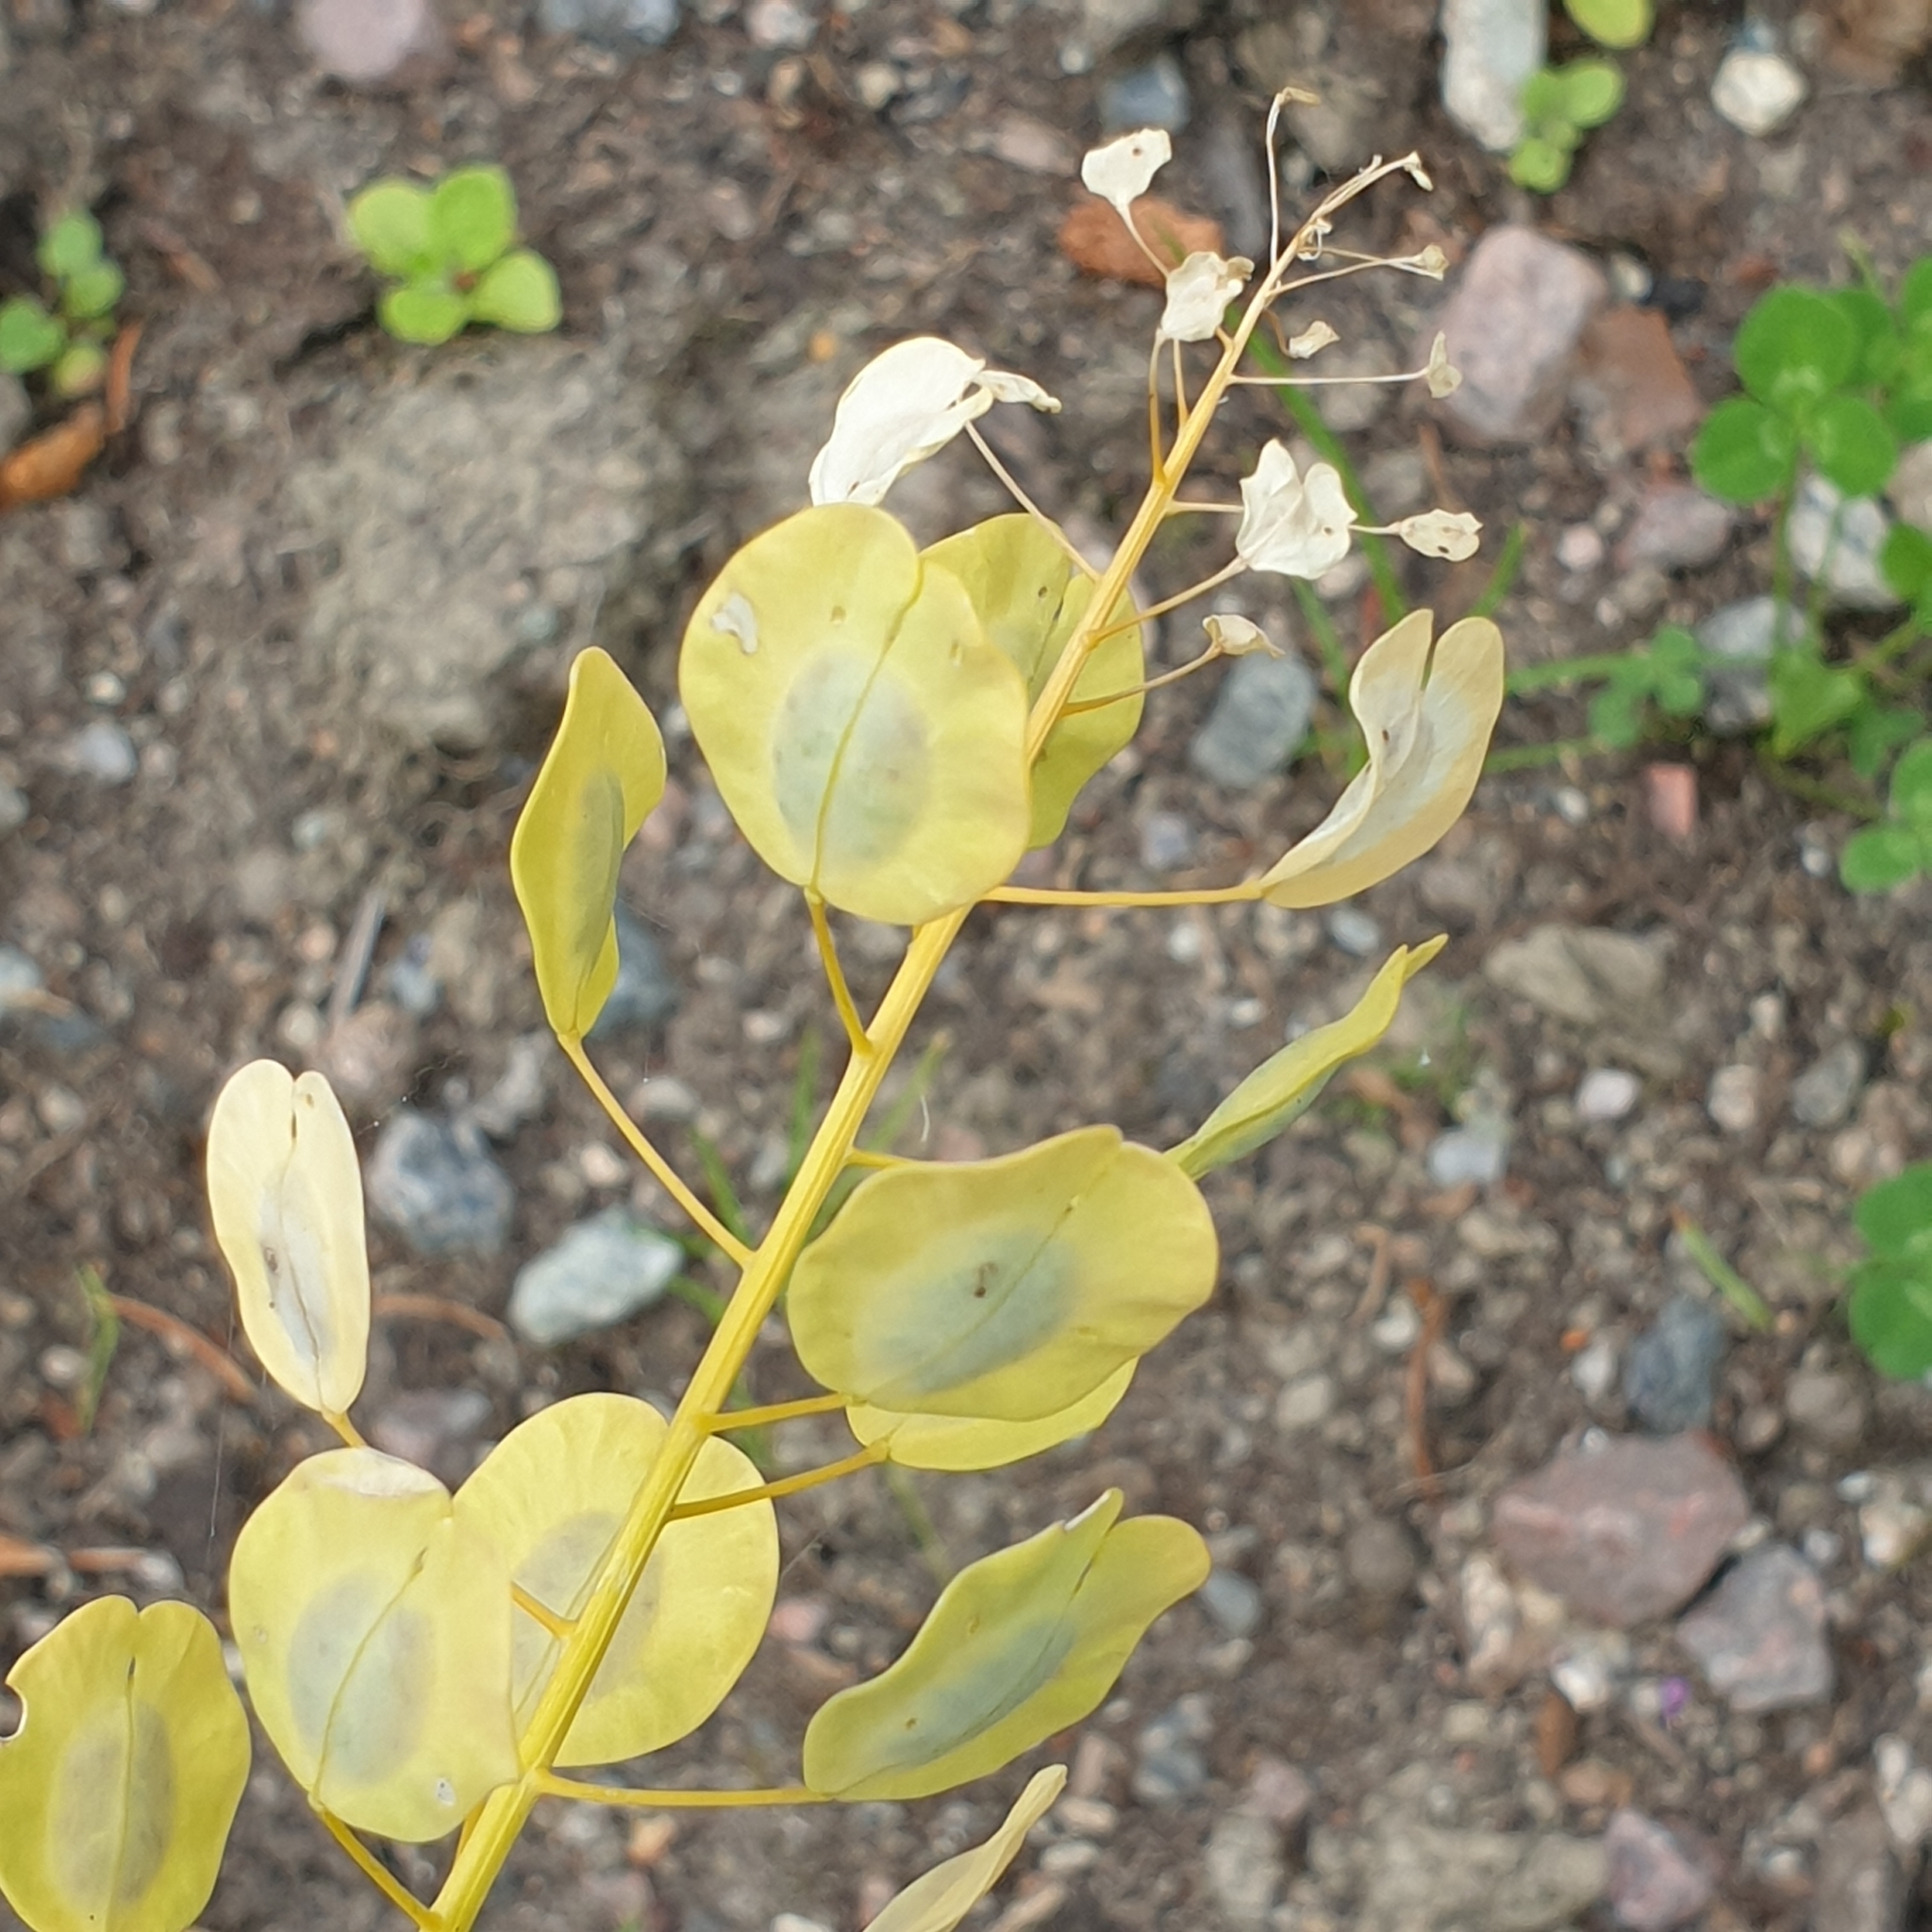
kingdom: Plantae
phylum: Tracheophyta
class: Magnoliopsida
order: Brassicales
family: Brassicaceae
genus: Thlaspi
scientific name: Thlaspi arvense
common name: Field pennycress
